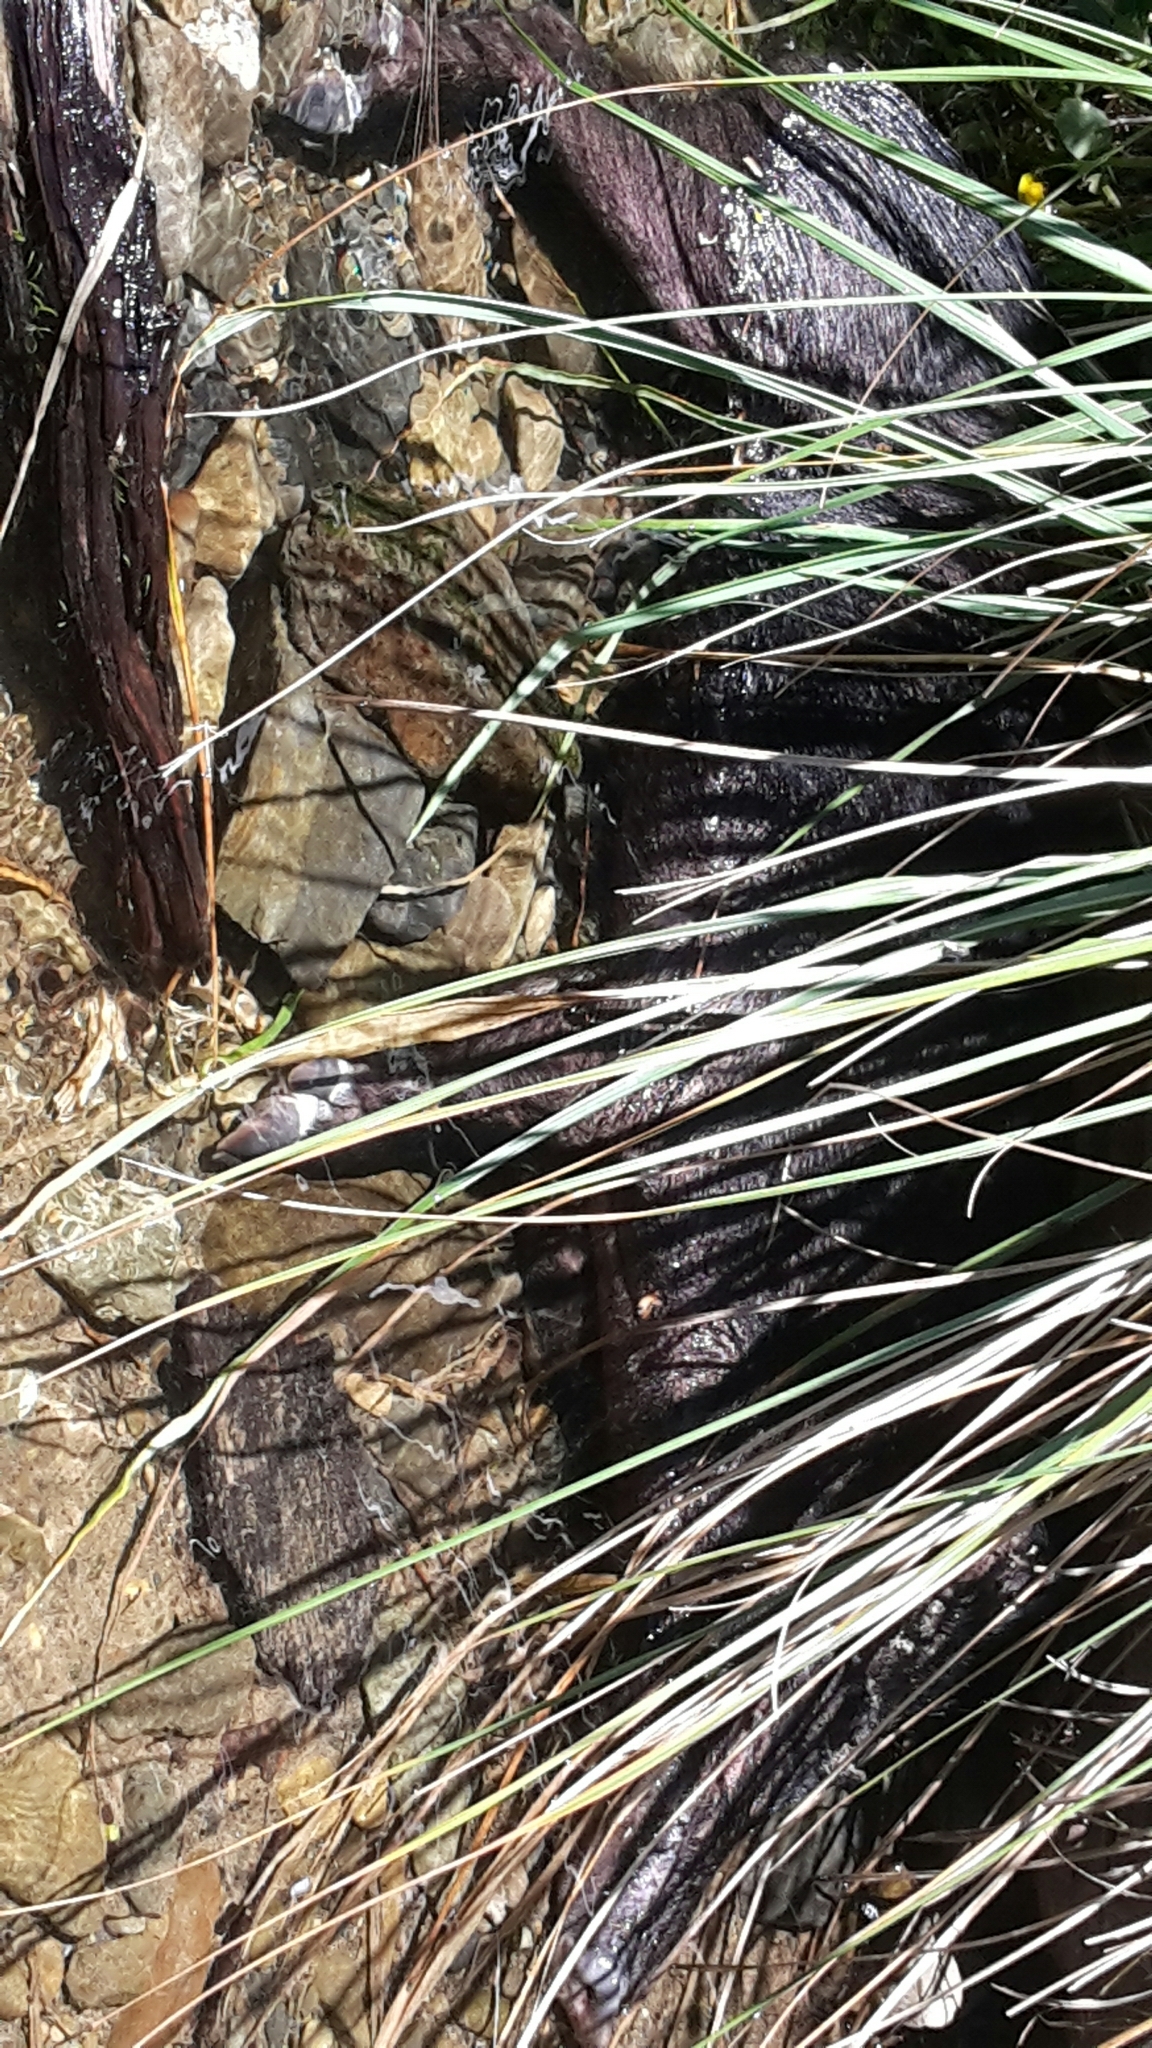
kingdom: Animalia
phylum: Chordata
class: Mammalia
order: Artiodactyla
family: Suidae
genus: Sus
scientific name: Sus scrofa
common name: Wild boar
